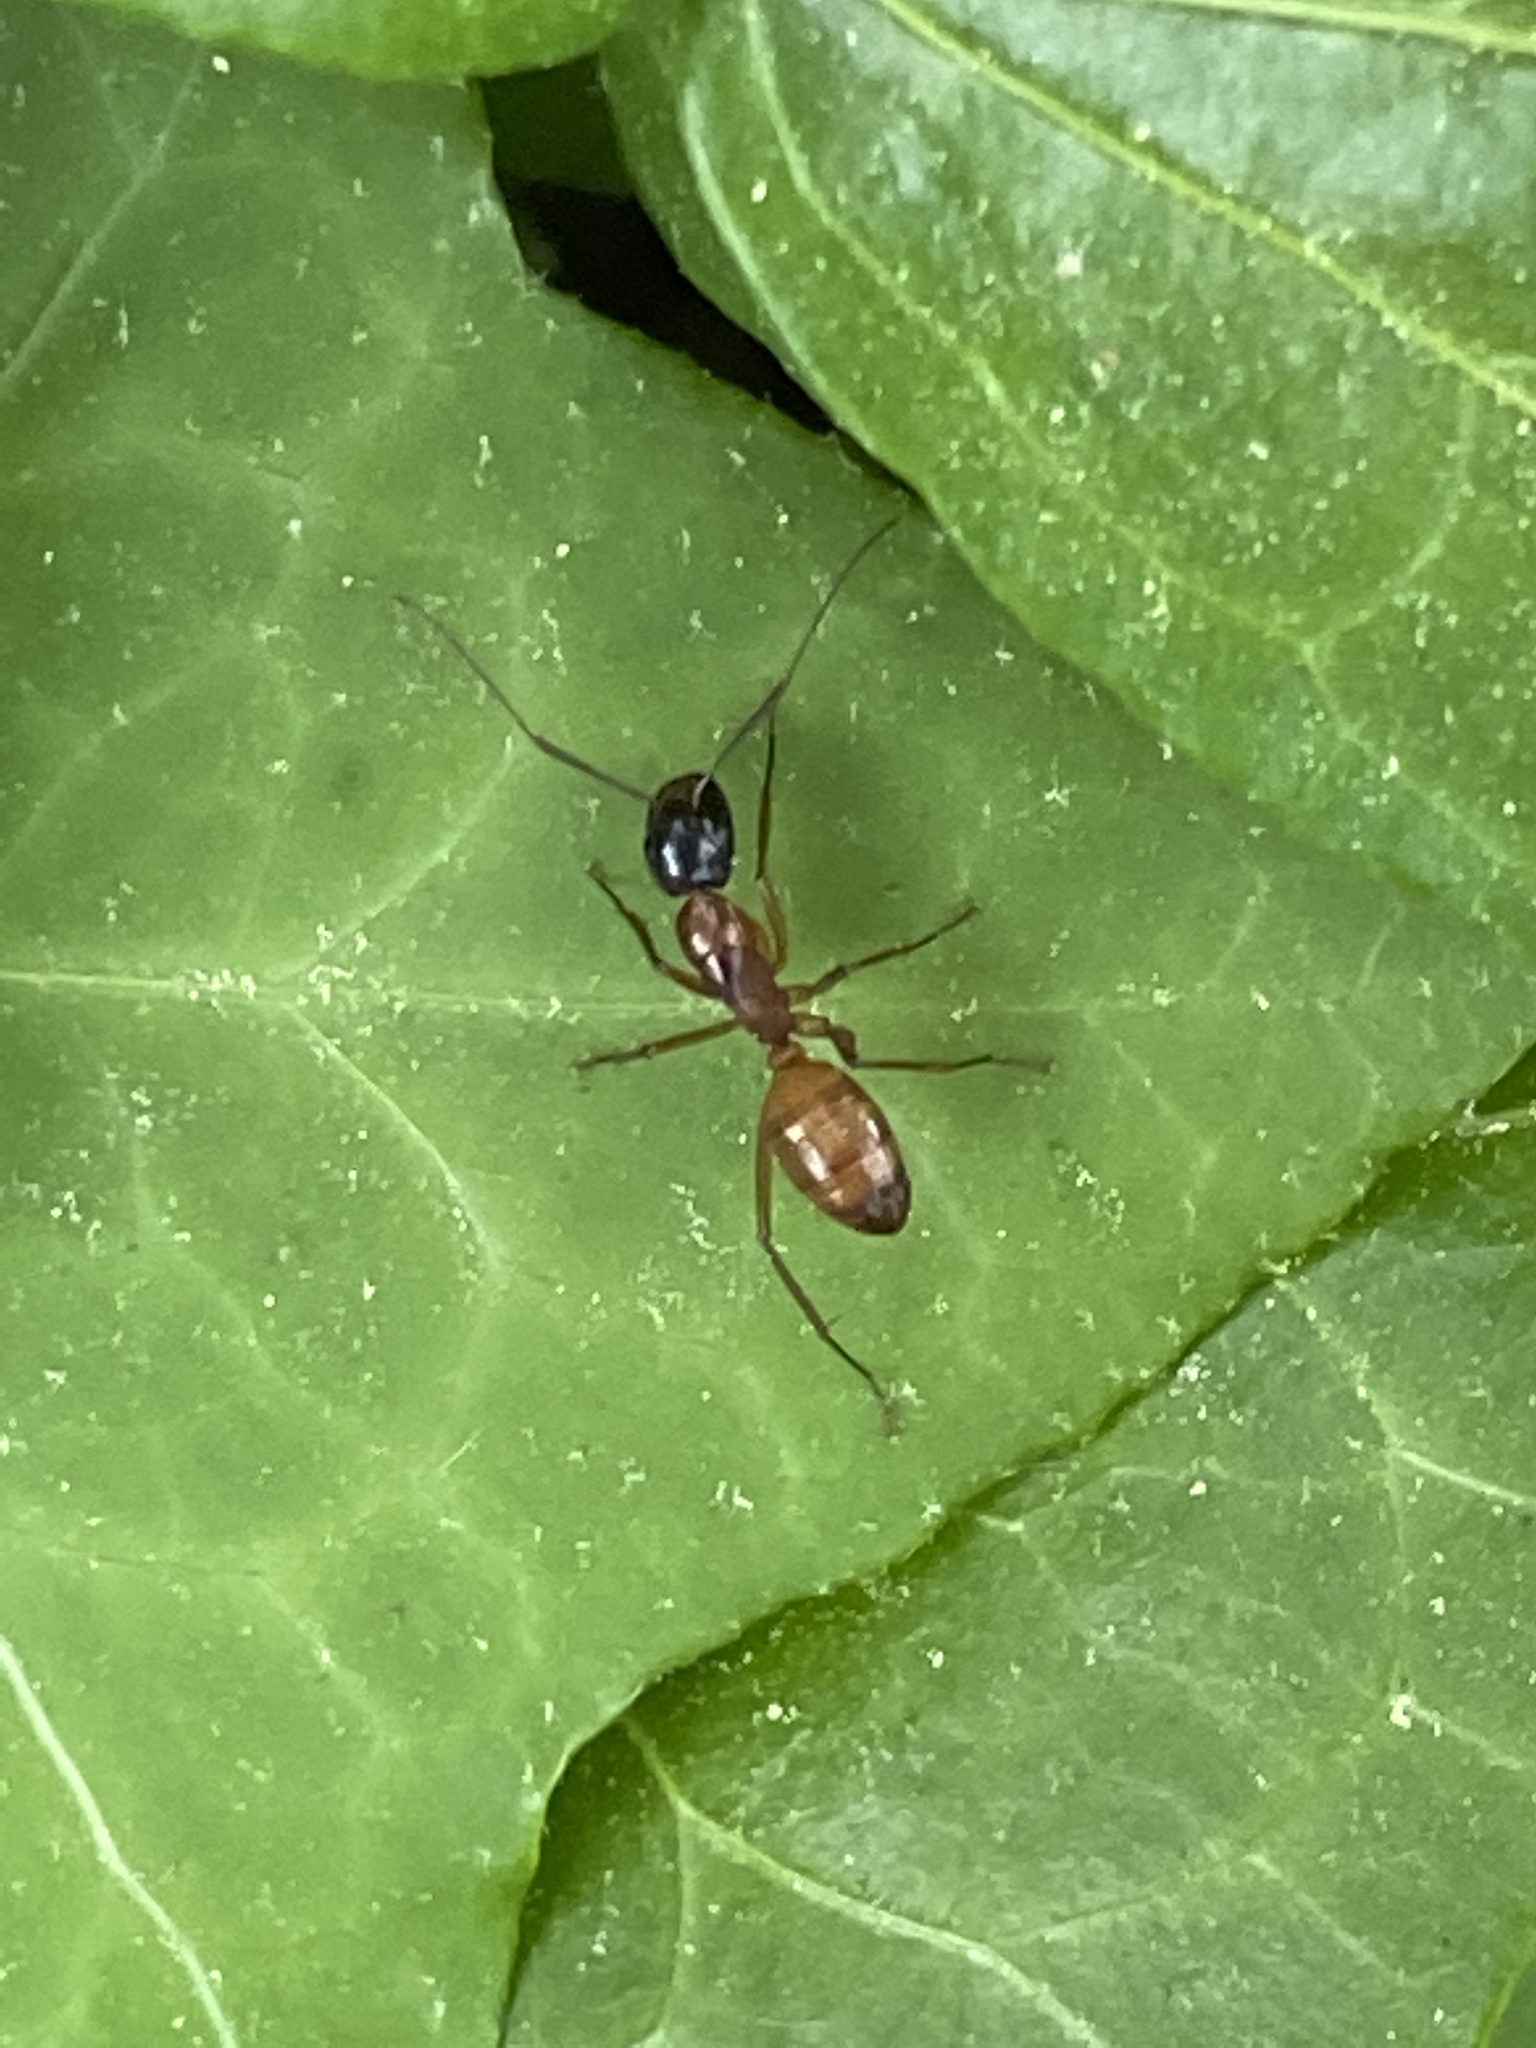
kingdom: Animalia
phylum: Arthropoda
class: Insecta
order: Hymenoptera
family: Formicidae
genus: Camponotus
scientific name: Camponotus americanus
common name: American carpenter ant
